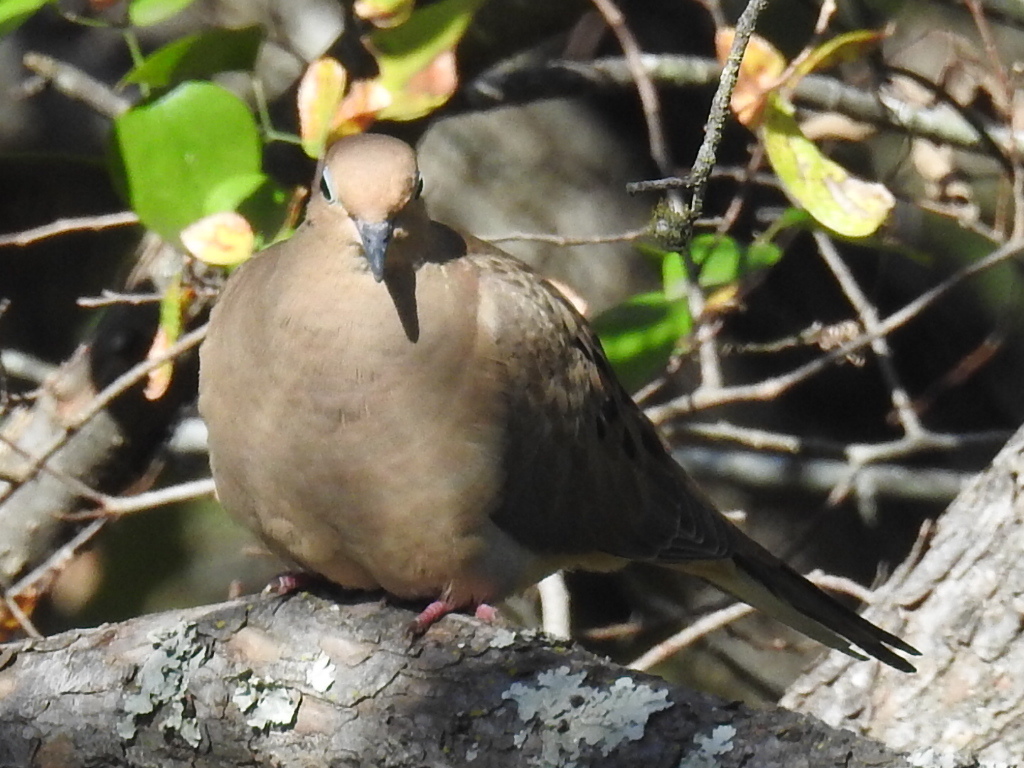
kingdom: Animalia
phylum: Chordata
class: Aves
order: Columbiformes
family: Columbidae
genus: Zenaida
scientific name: Zenaida macroura
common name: Mourning dove
